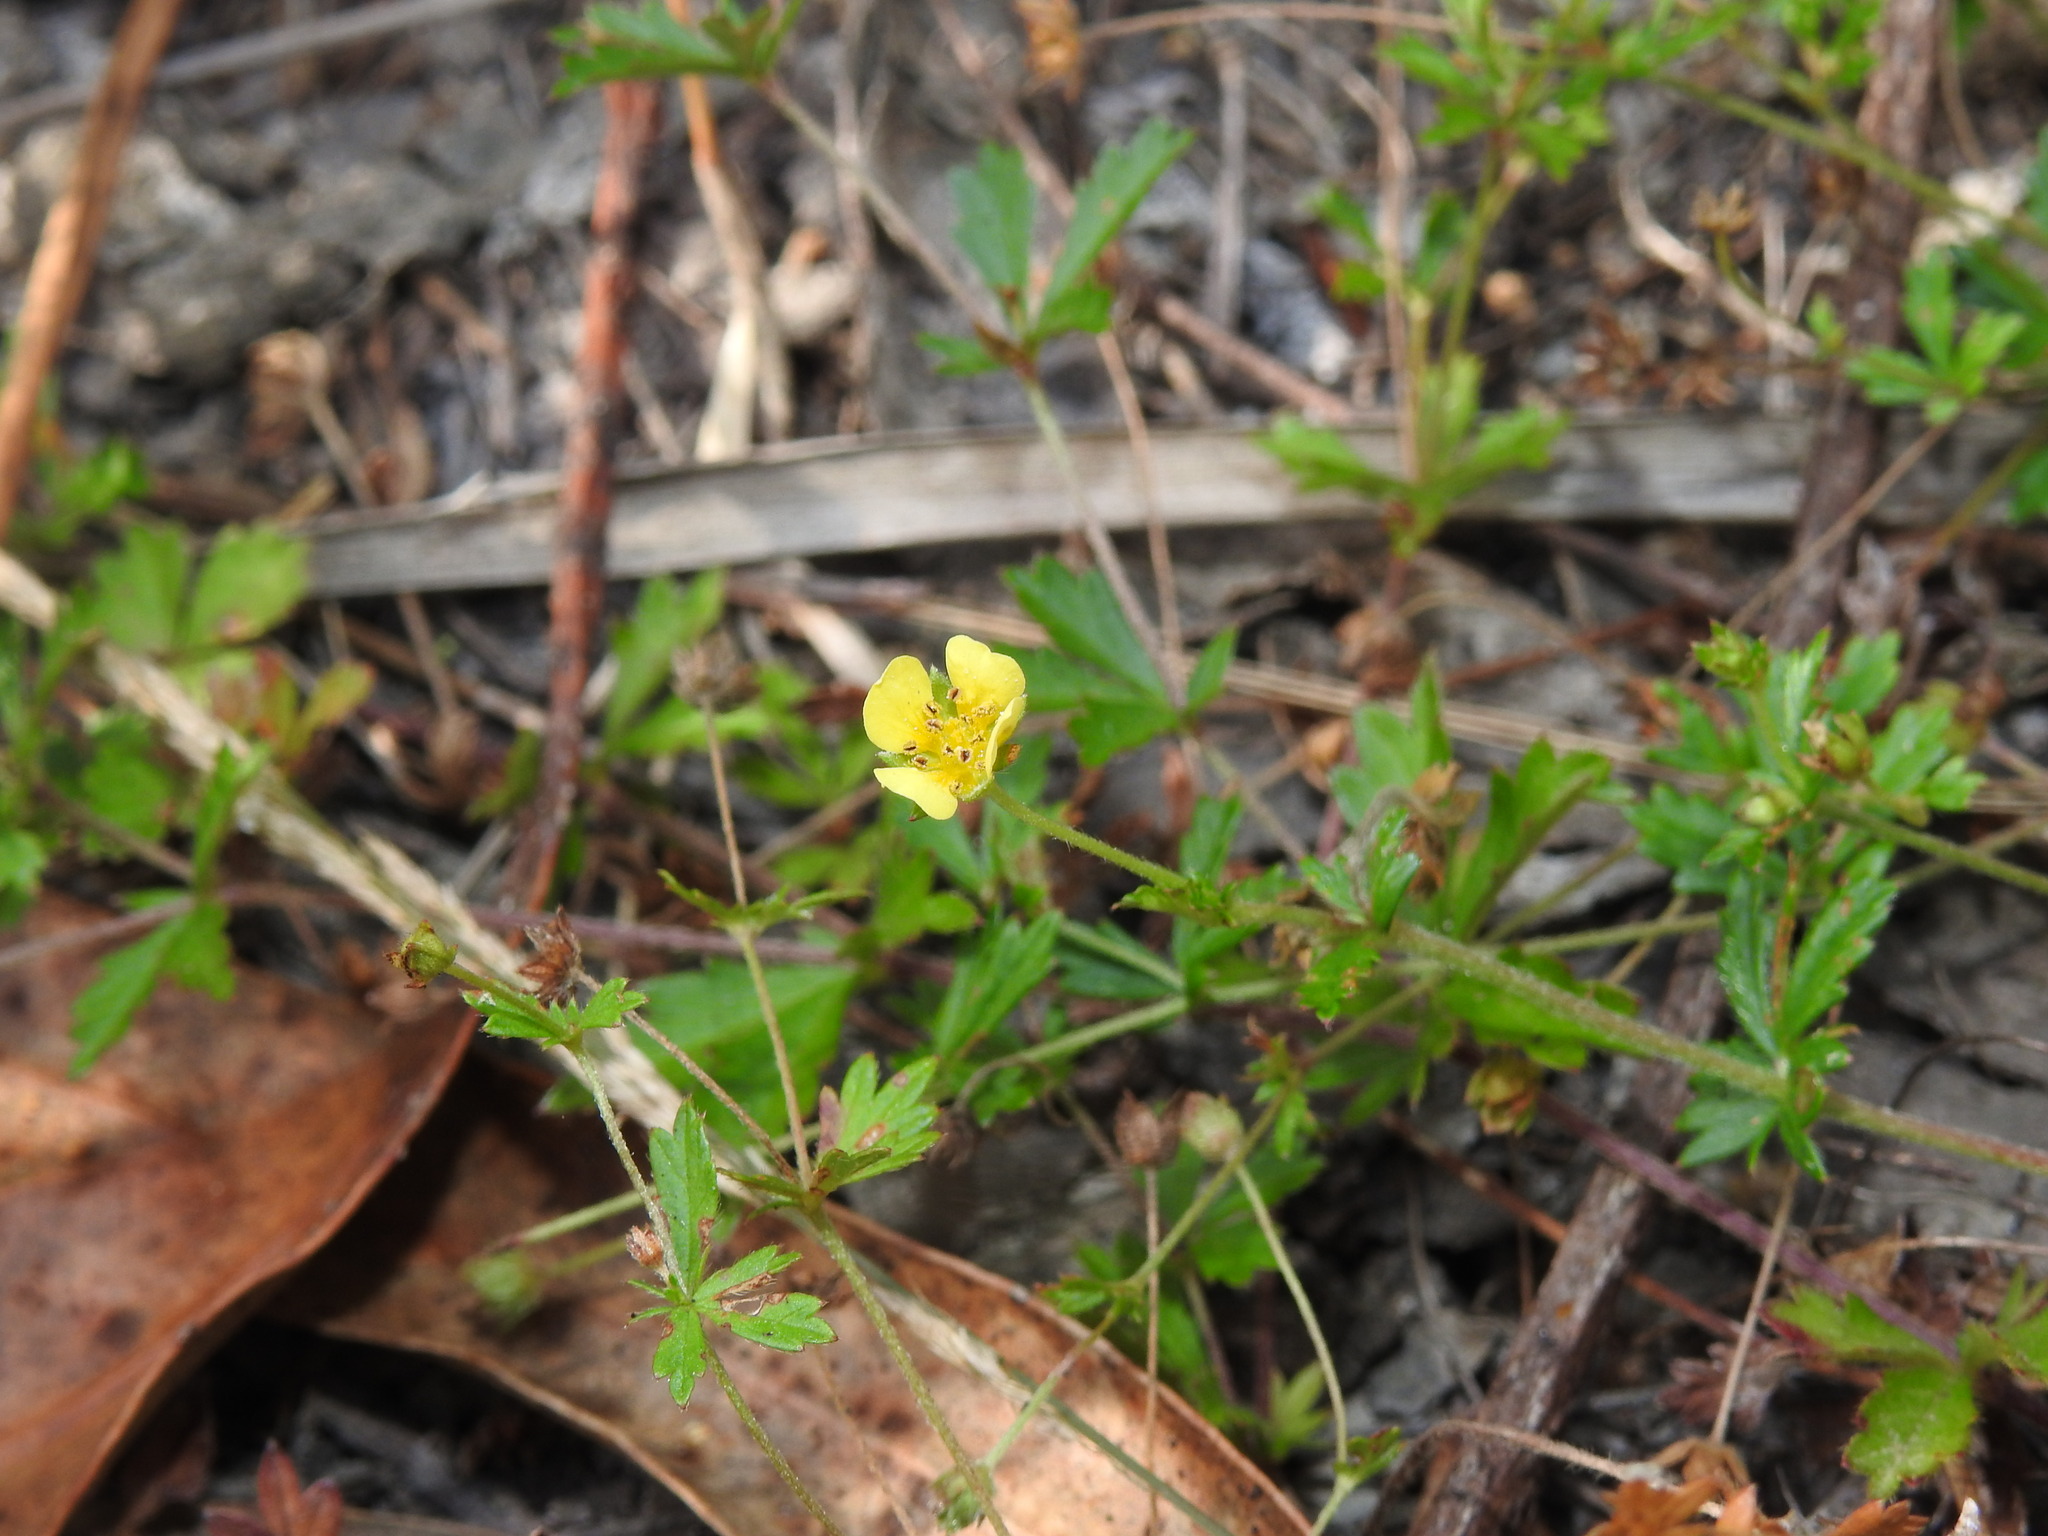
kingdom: Plantae
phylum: Tracheophyta
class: Magnoliopsida
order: Rosales
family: Rosaceae
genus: Potentilla
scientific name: Potentilla erecta
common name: Tormentil
